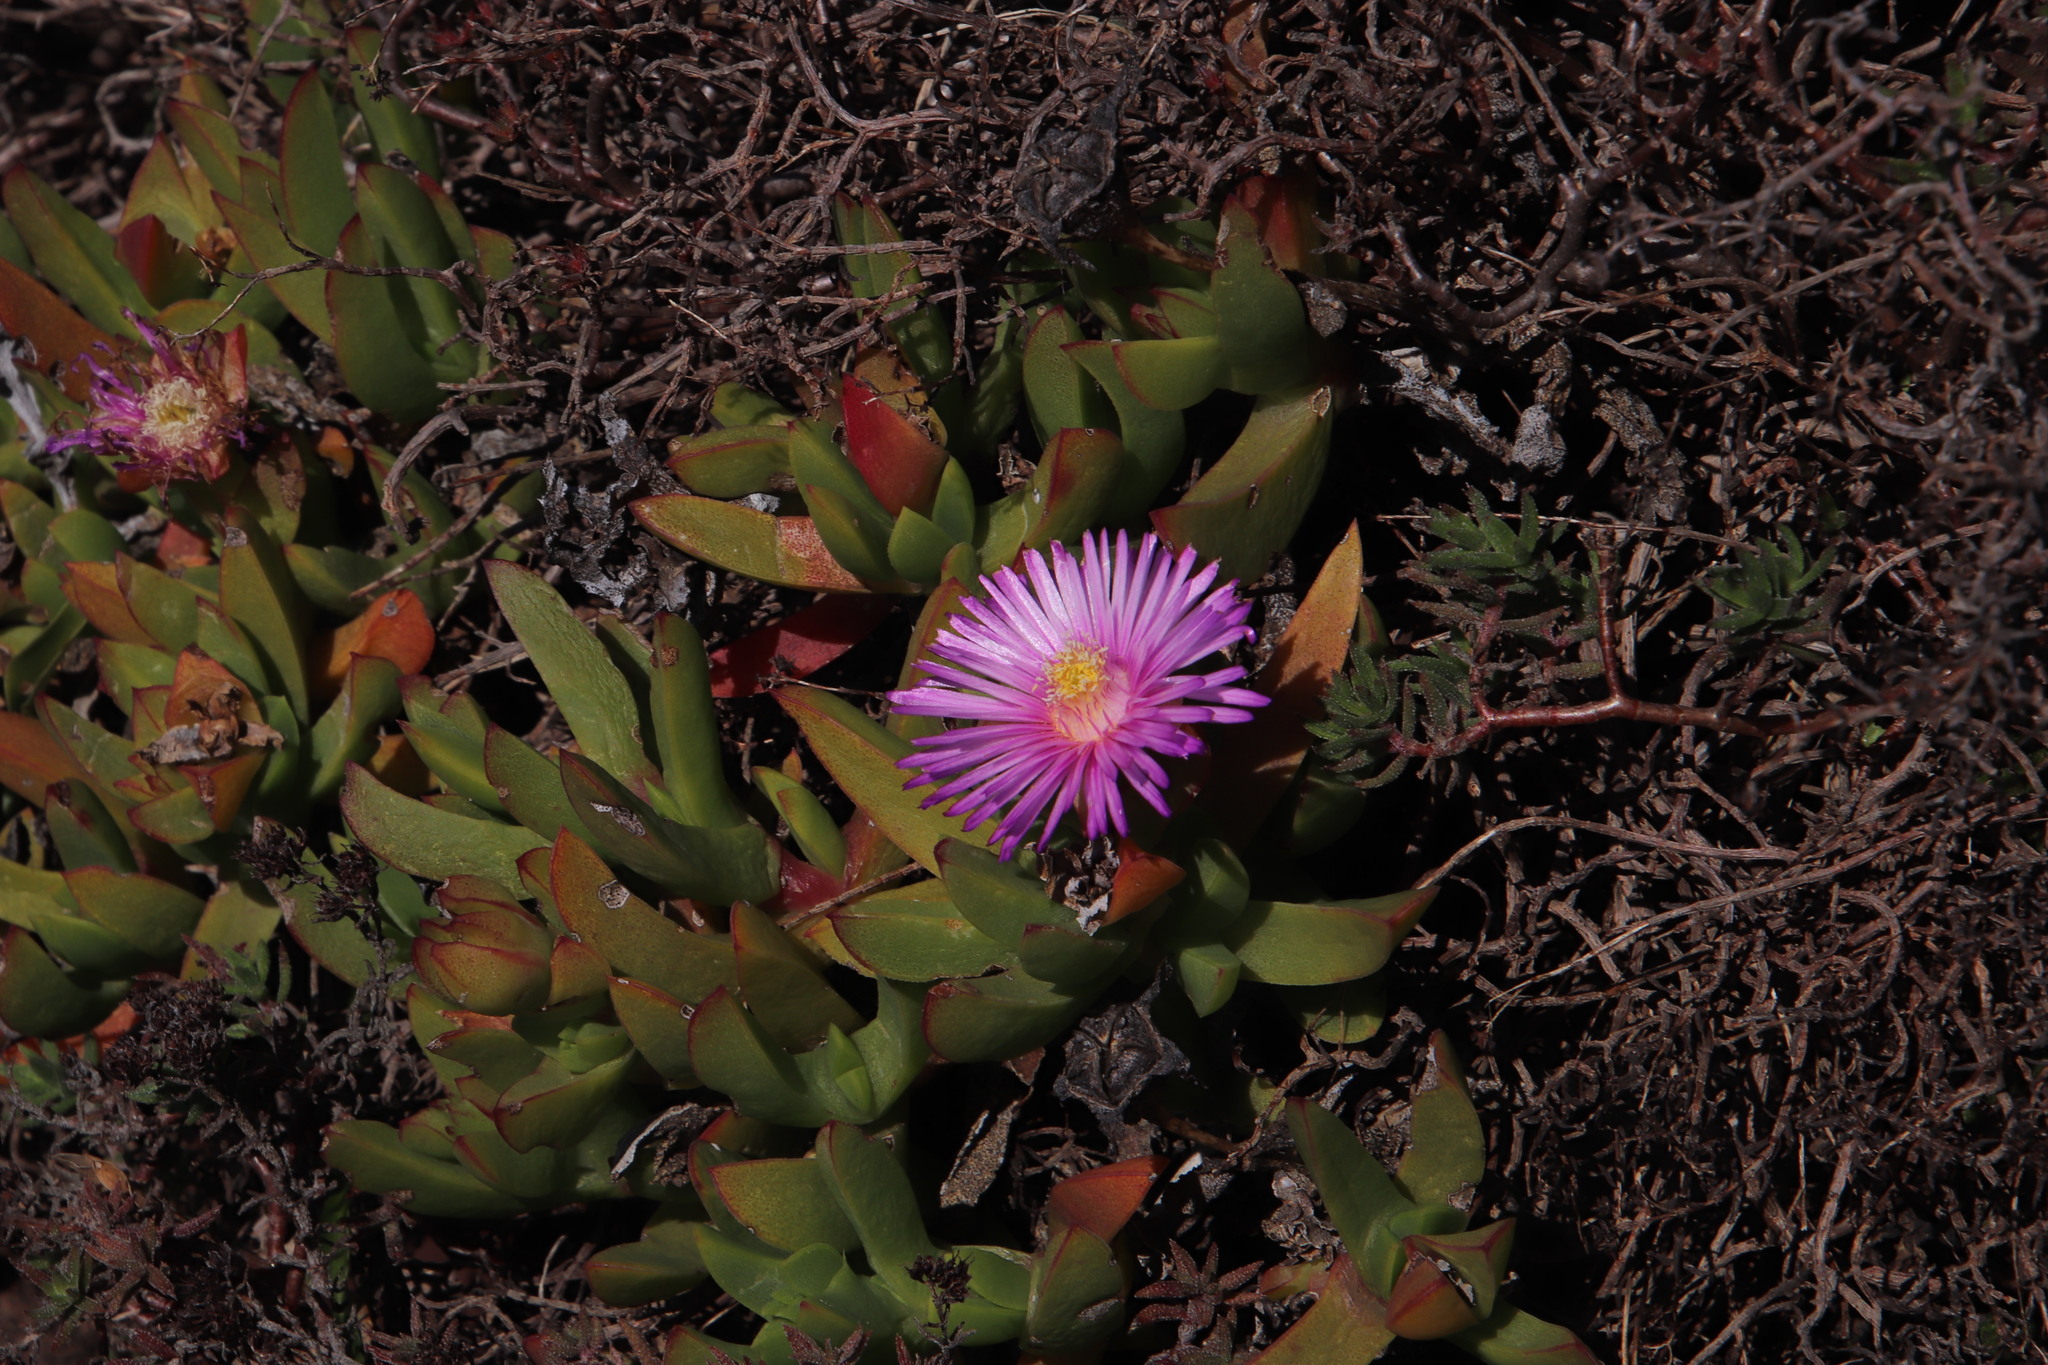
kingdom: Plantae
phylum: Tracheophyta
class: Magnoliopsida
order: Caryophyllales
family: Aizoaceae
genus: Erepsia
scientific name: Erepsia forficata
